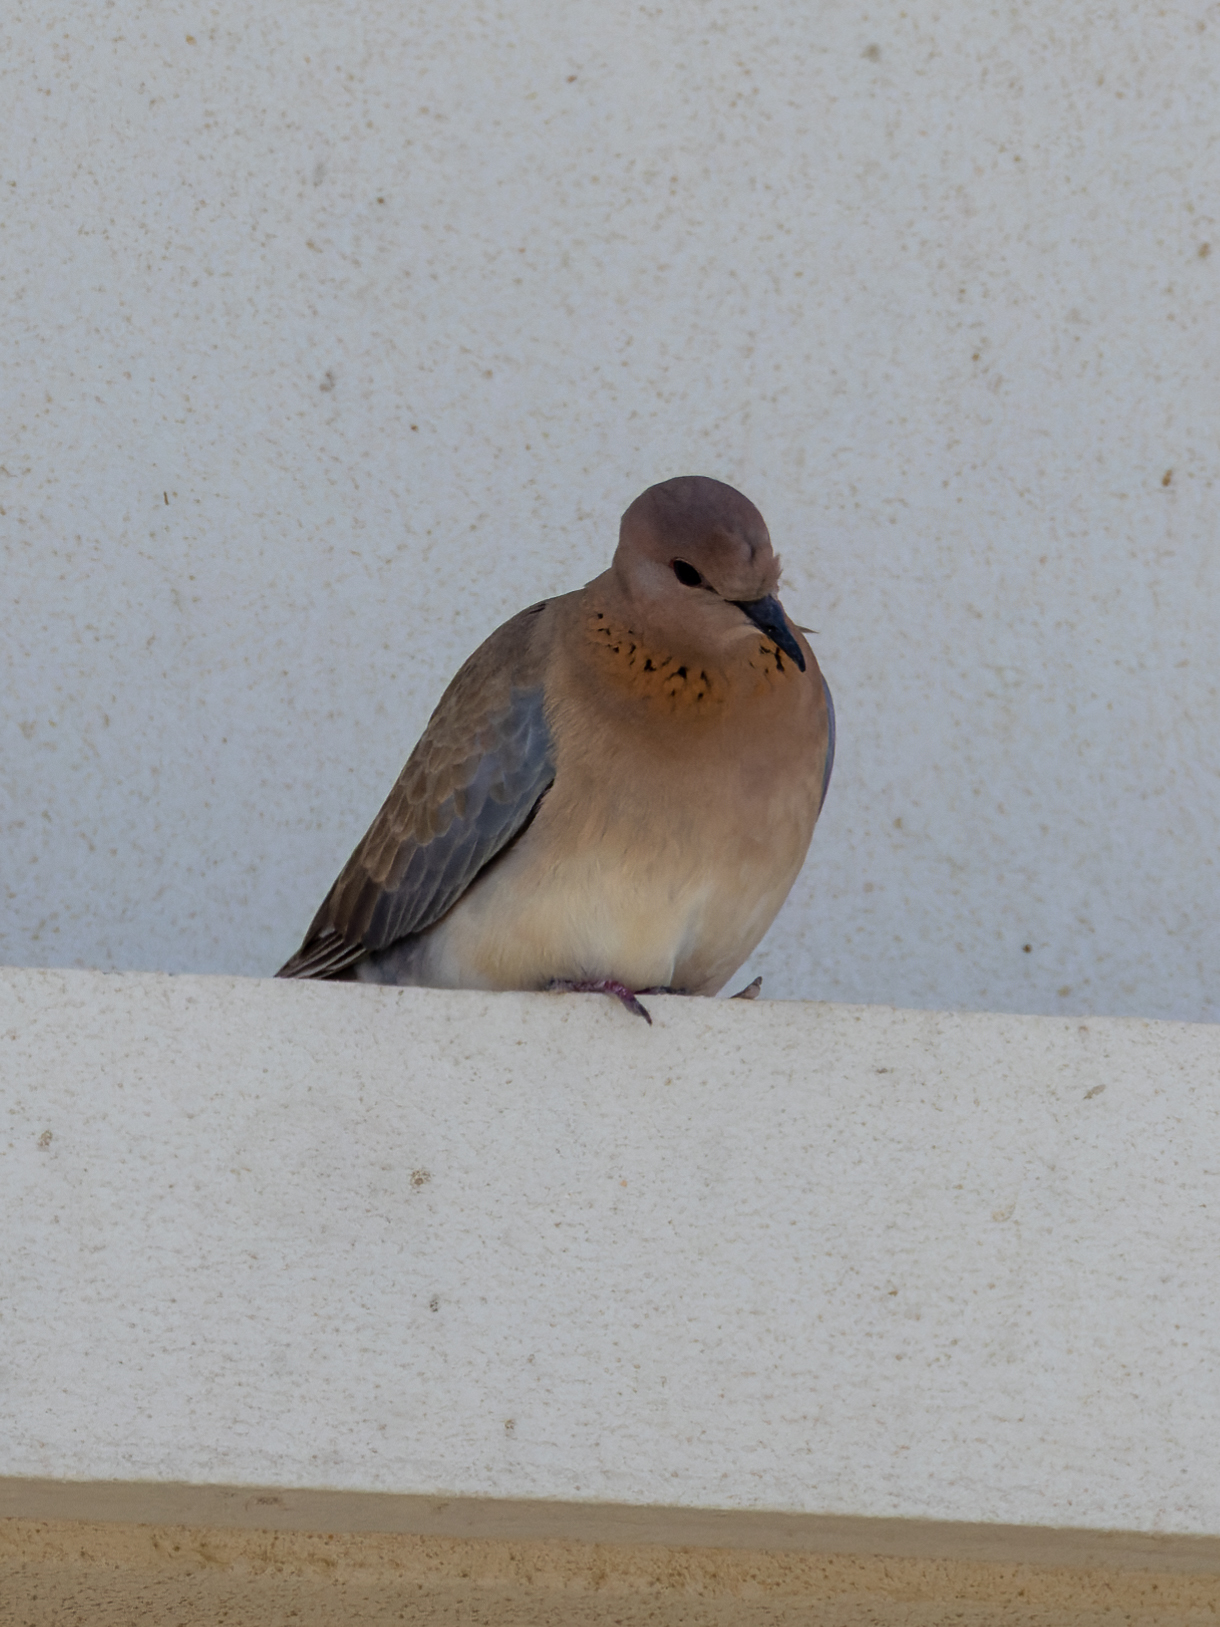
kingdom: Animalia
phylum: Chordata
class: Aves
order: Columbiformes
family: Columbidae
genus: Spilopelia
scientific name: Spilopelia senegalensis
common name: Laughing dove
